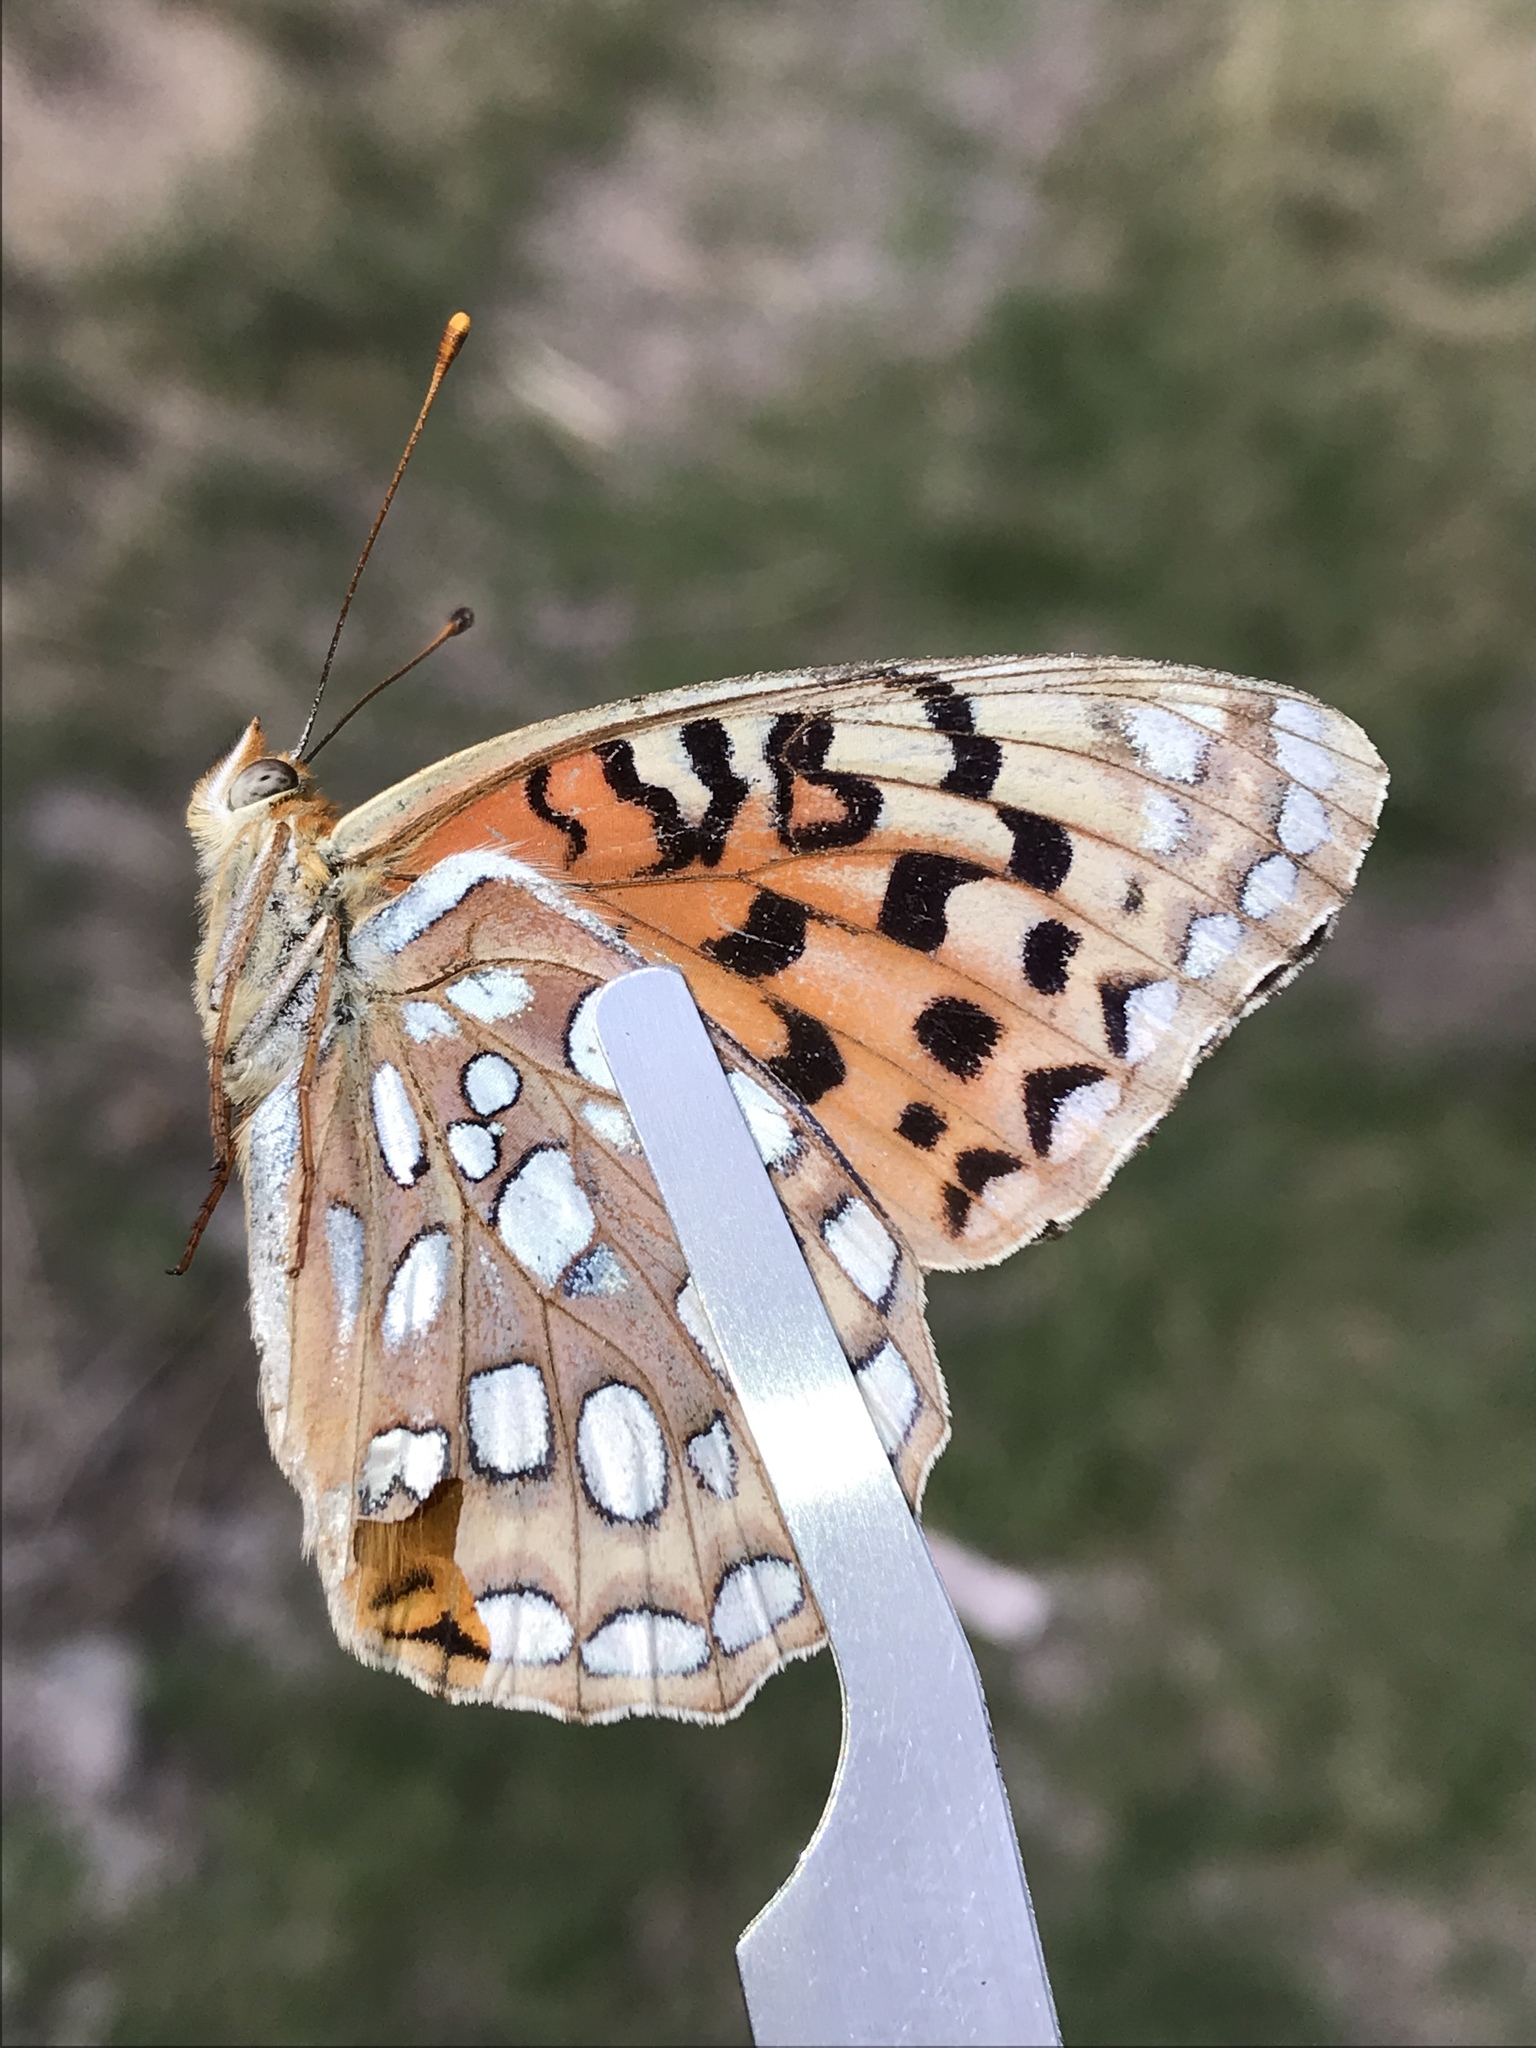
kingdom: Animalia
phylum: Arthropoda
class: Insecta
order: Lepidoptera
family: Nymphalidae
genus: Argynnis
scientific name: Argynnis coronis
